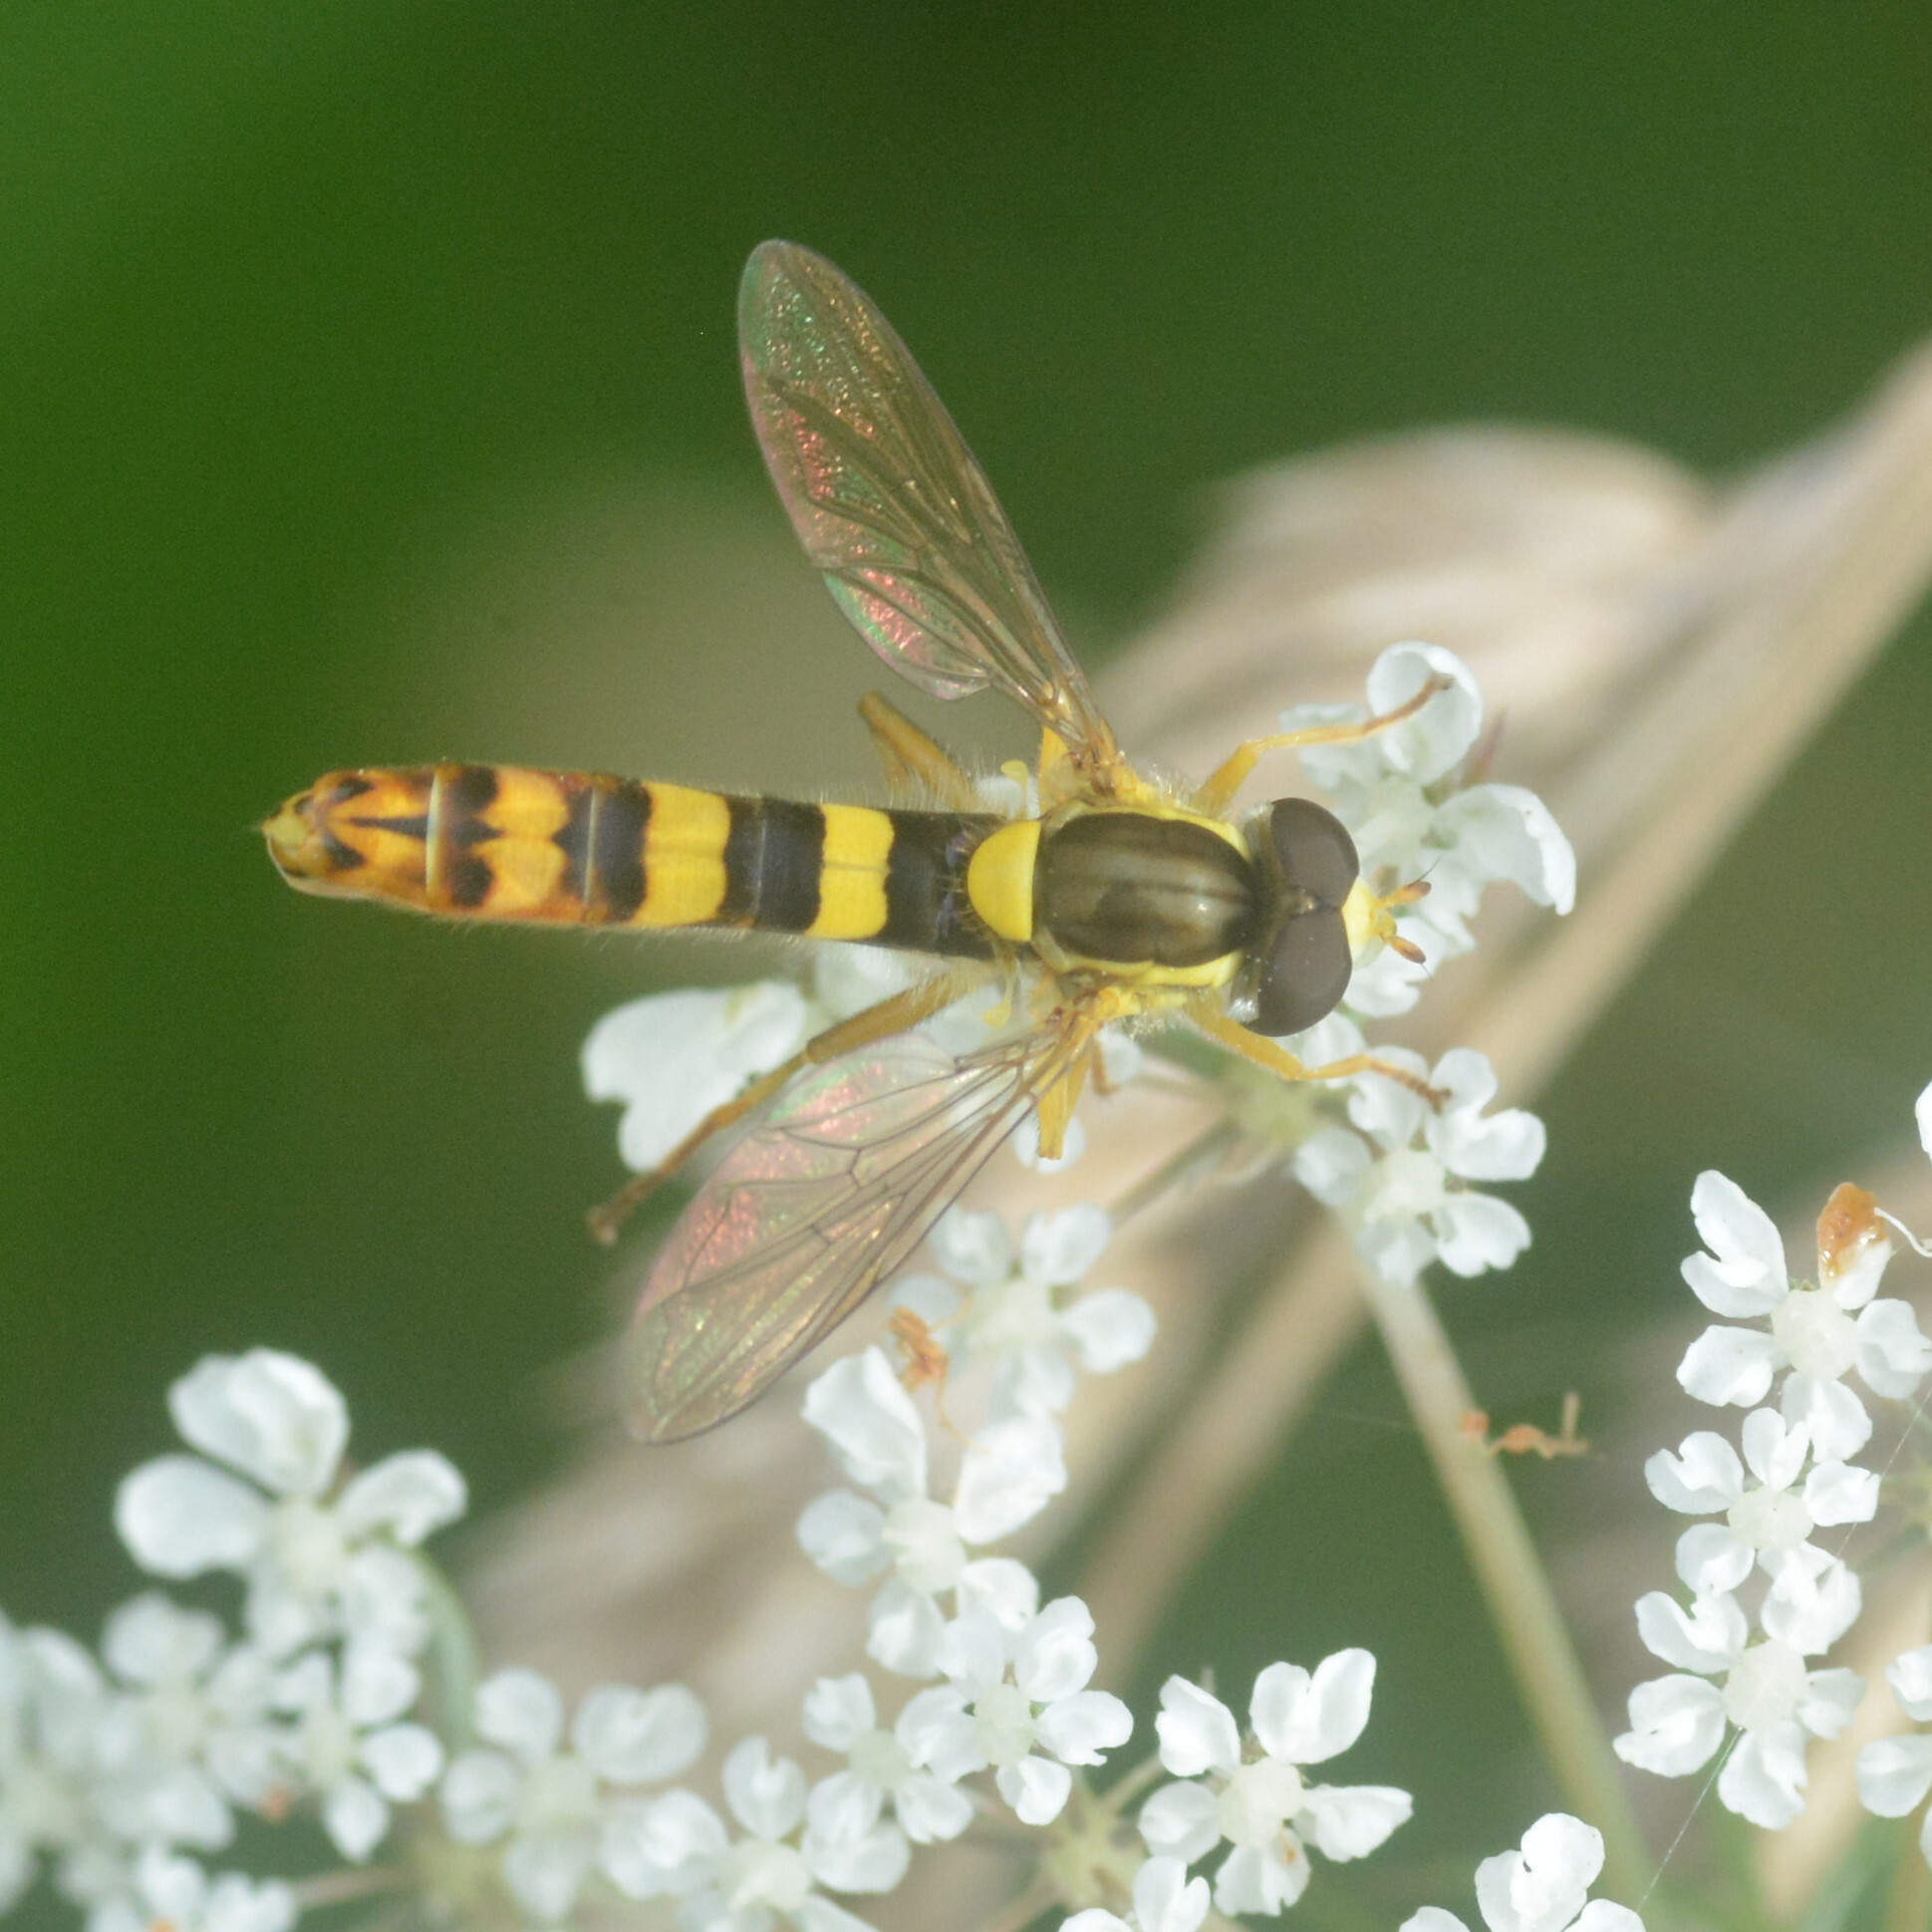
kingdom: Animalia
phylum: Arthropoda
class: Insecta
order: Diptera
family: Syrphidae
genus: Sphaerophoria
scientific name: Sphaerophoria scripta
